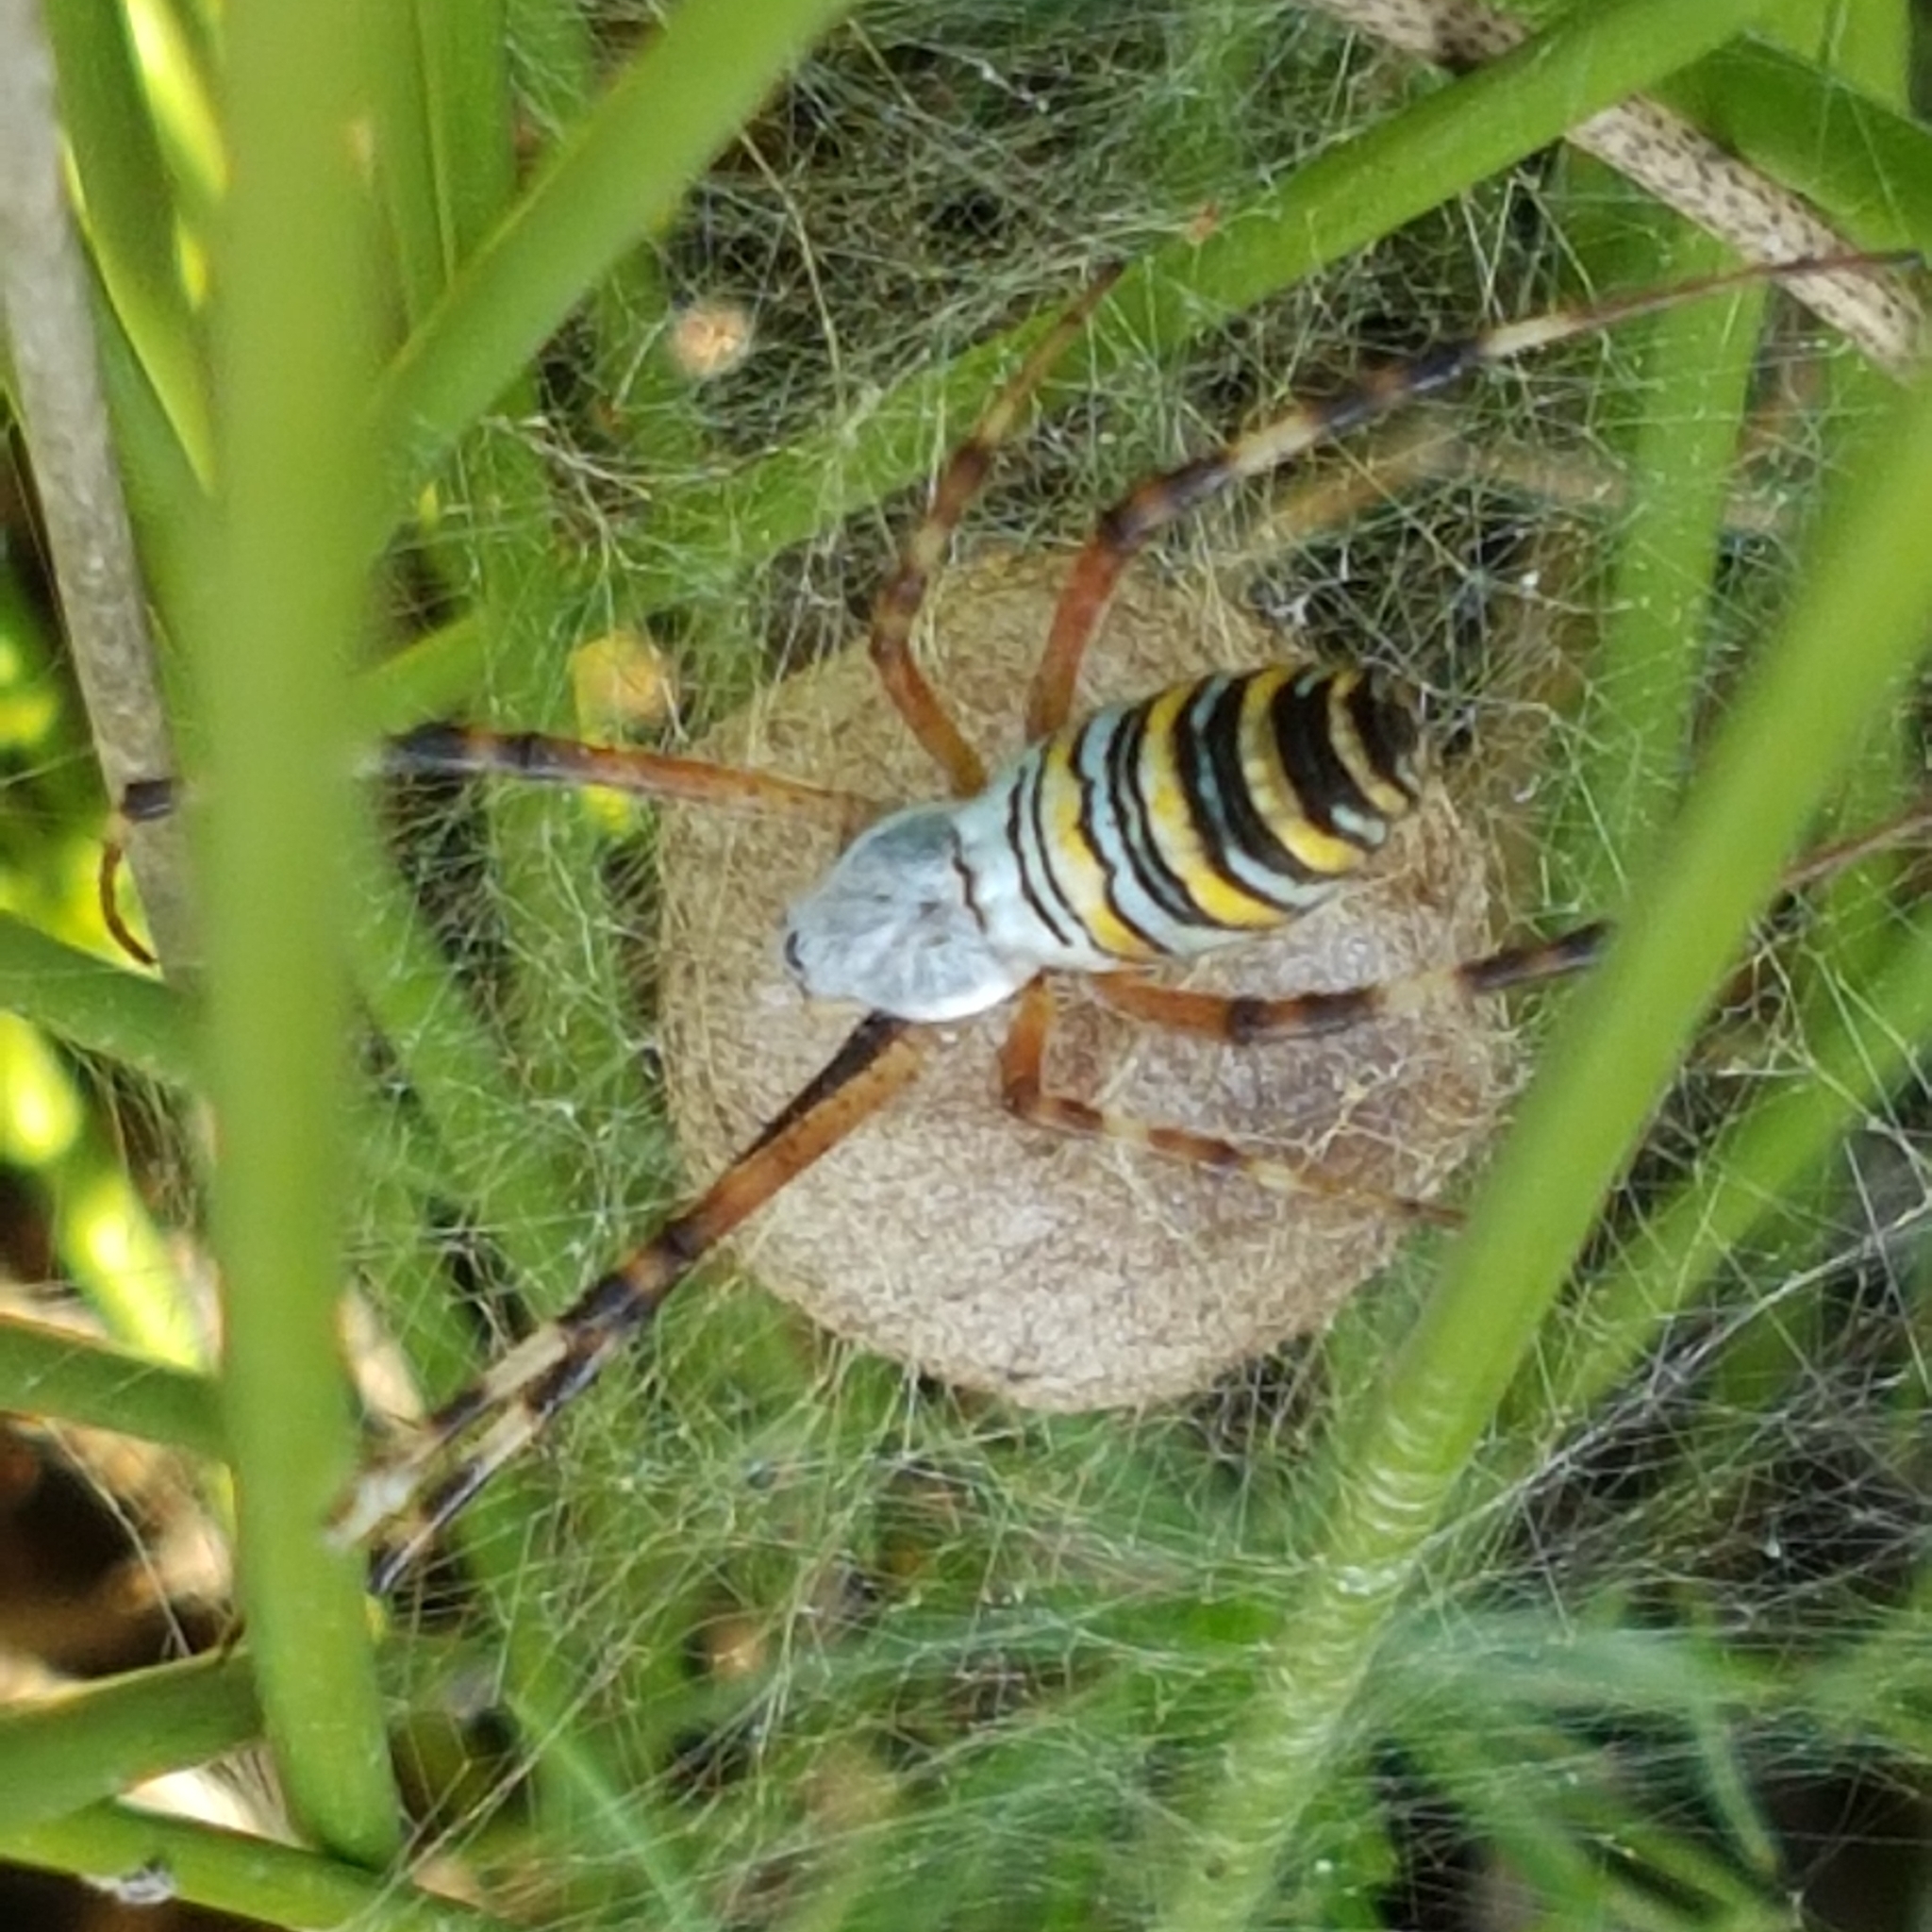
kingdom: Animalia
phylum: Arthropoda
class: Arachnida
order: Araneae
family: Araneidae
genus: Argiope
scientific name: Argiope bruennichi
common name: Wasp spider
